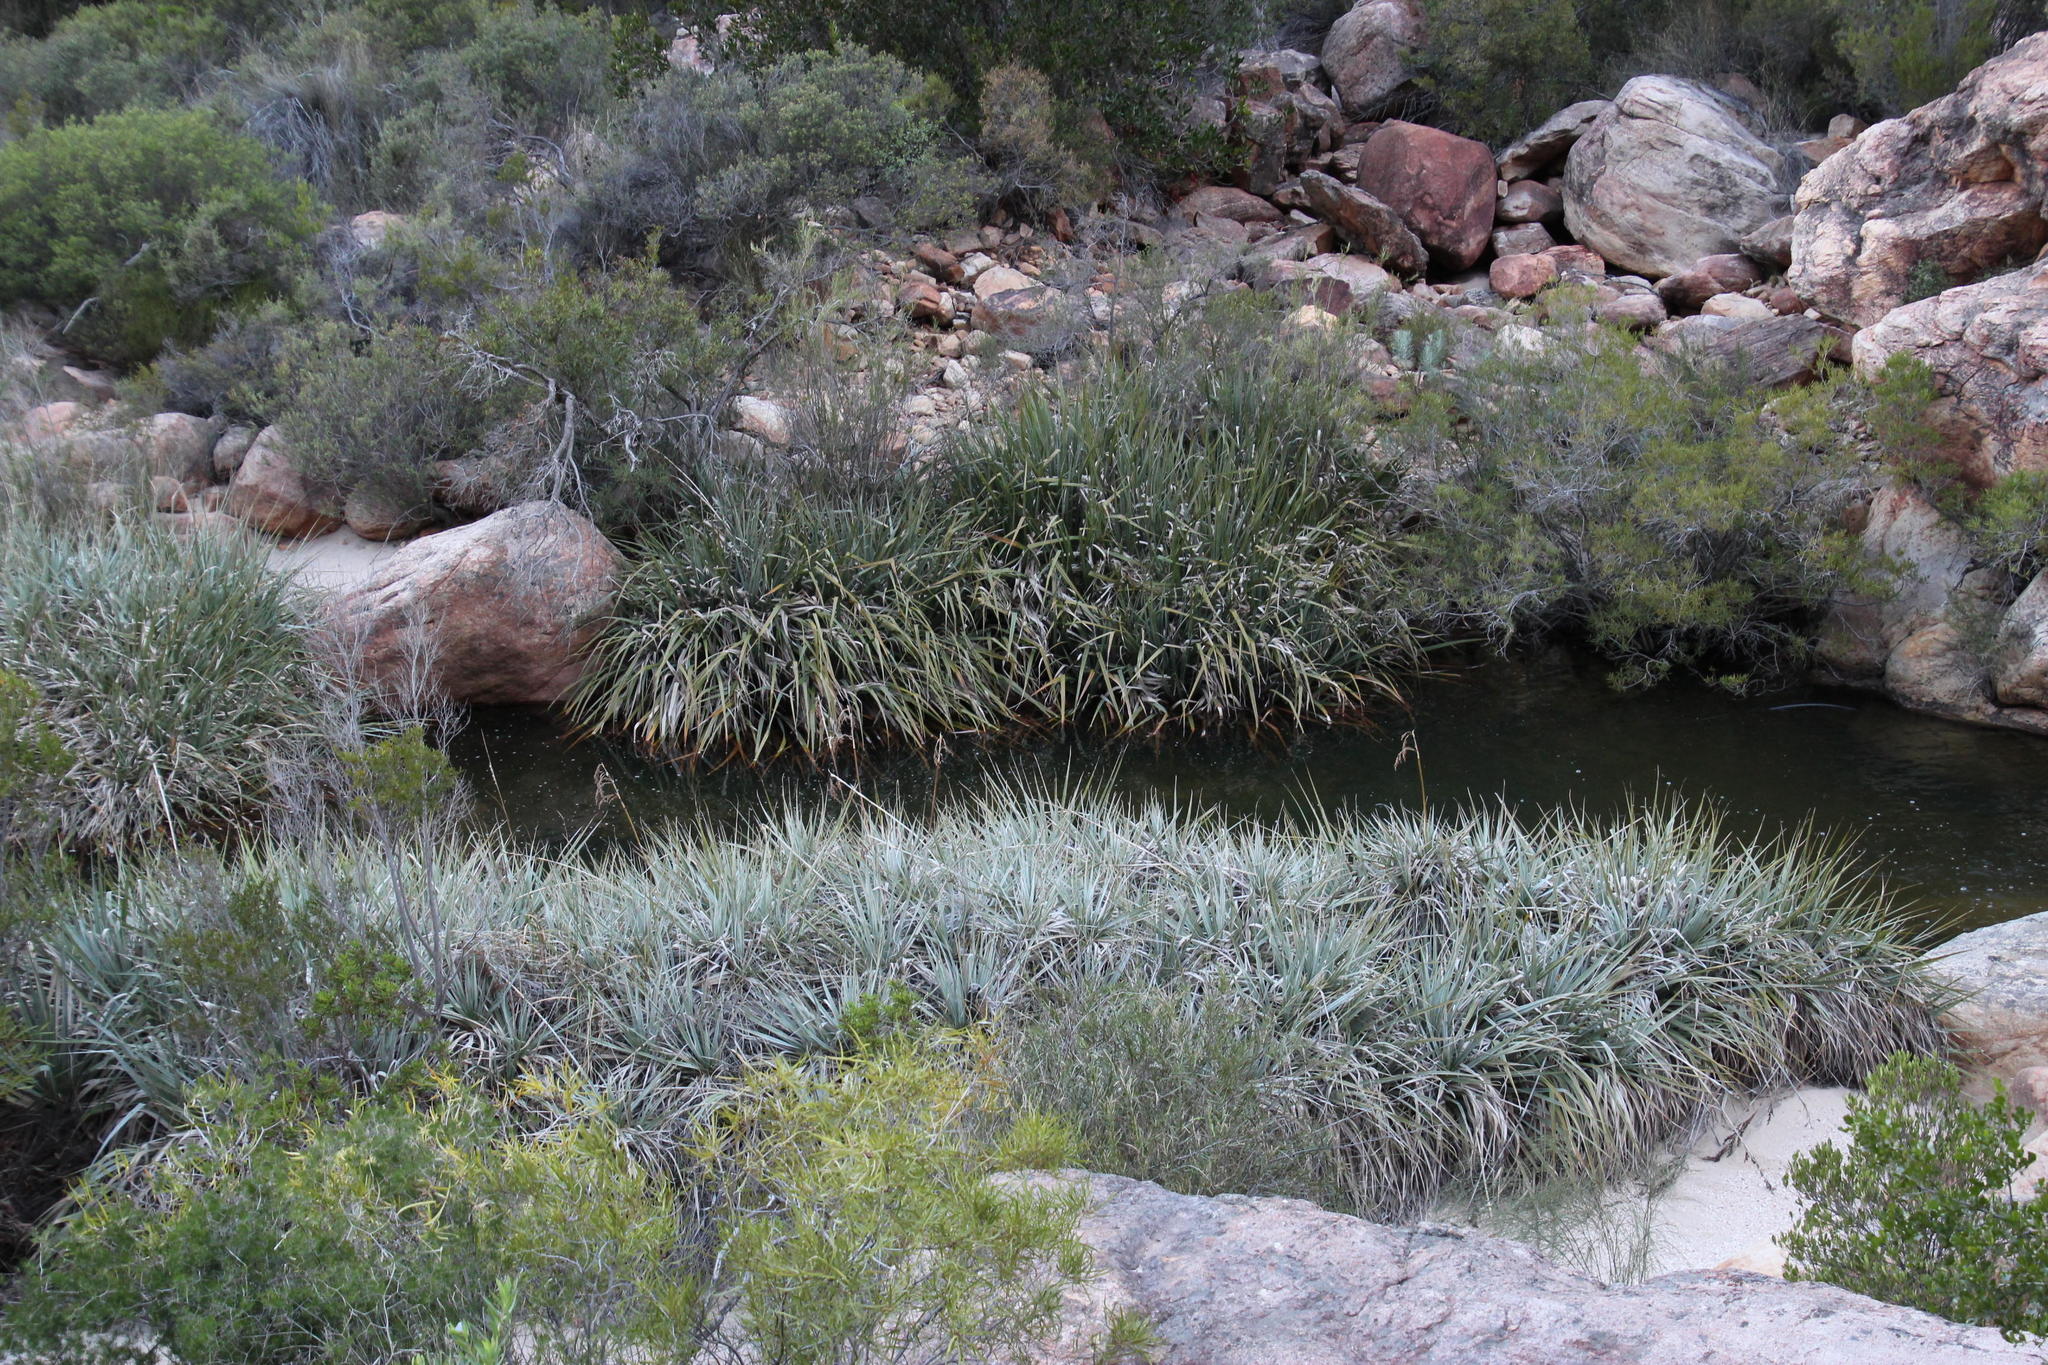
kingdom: Plantae
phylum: Tracheophyta
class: Liliopsida
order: Poales
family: Thurniaceae
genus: Prionium
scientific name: Prionium serratum
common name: Palmiet
